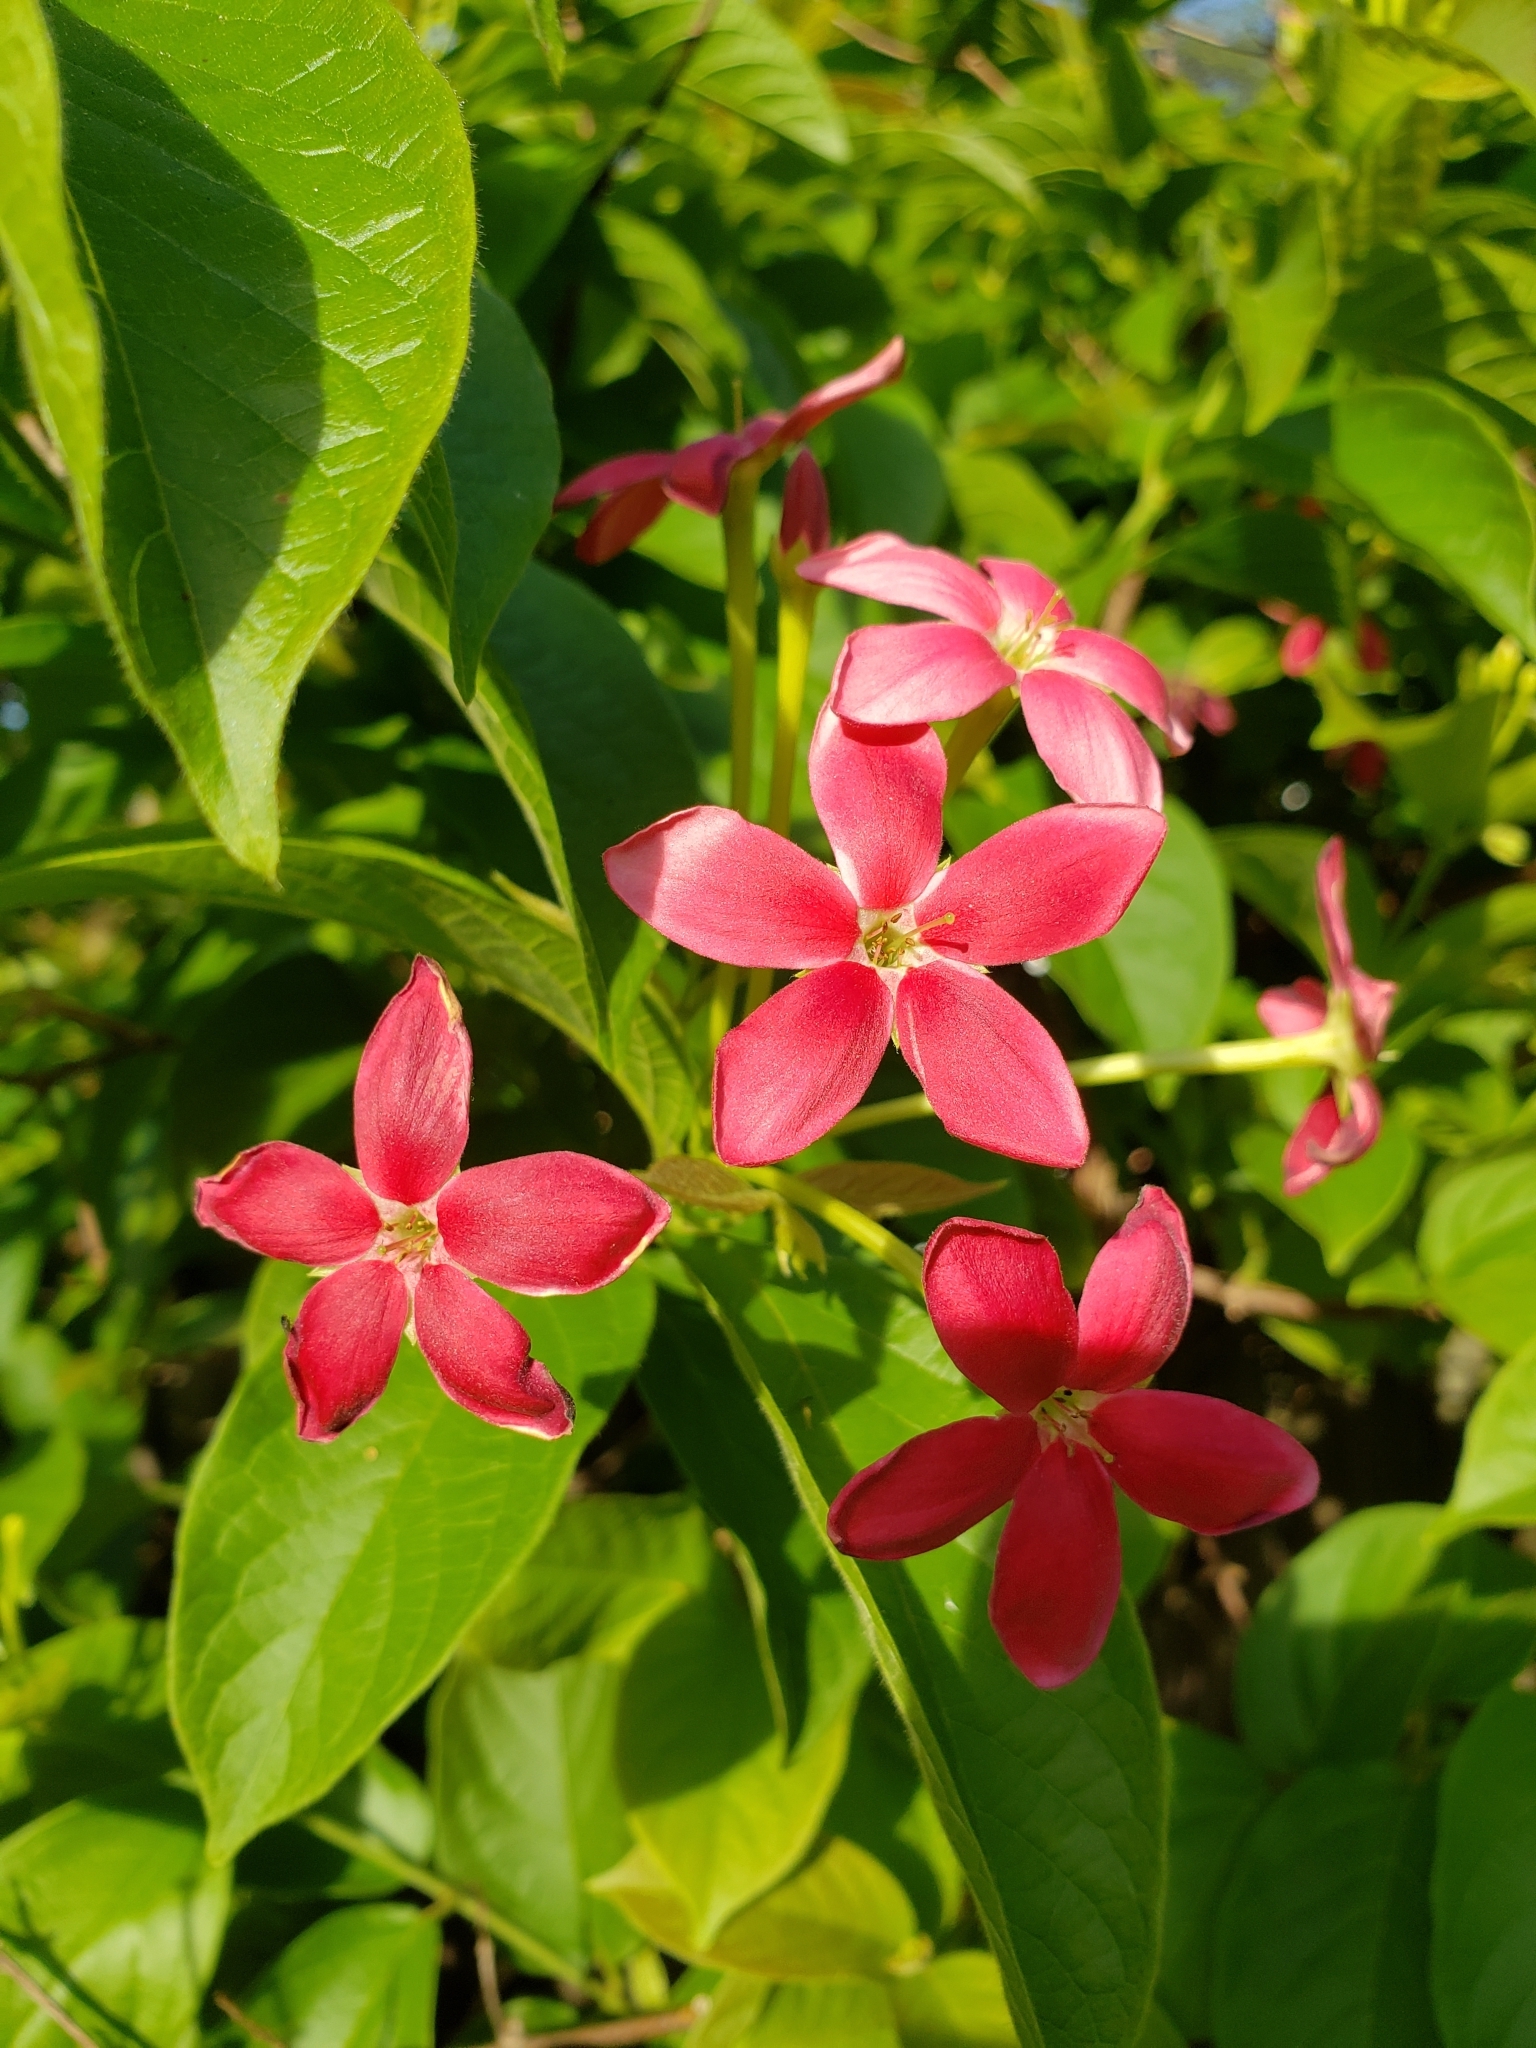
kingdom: Plantae
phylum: Tracheophyta
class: Magnoliopsida
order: Myrtales
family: Combretaceae
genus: Combretum
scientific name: Combretum indicum
